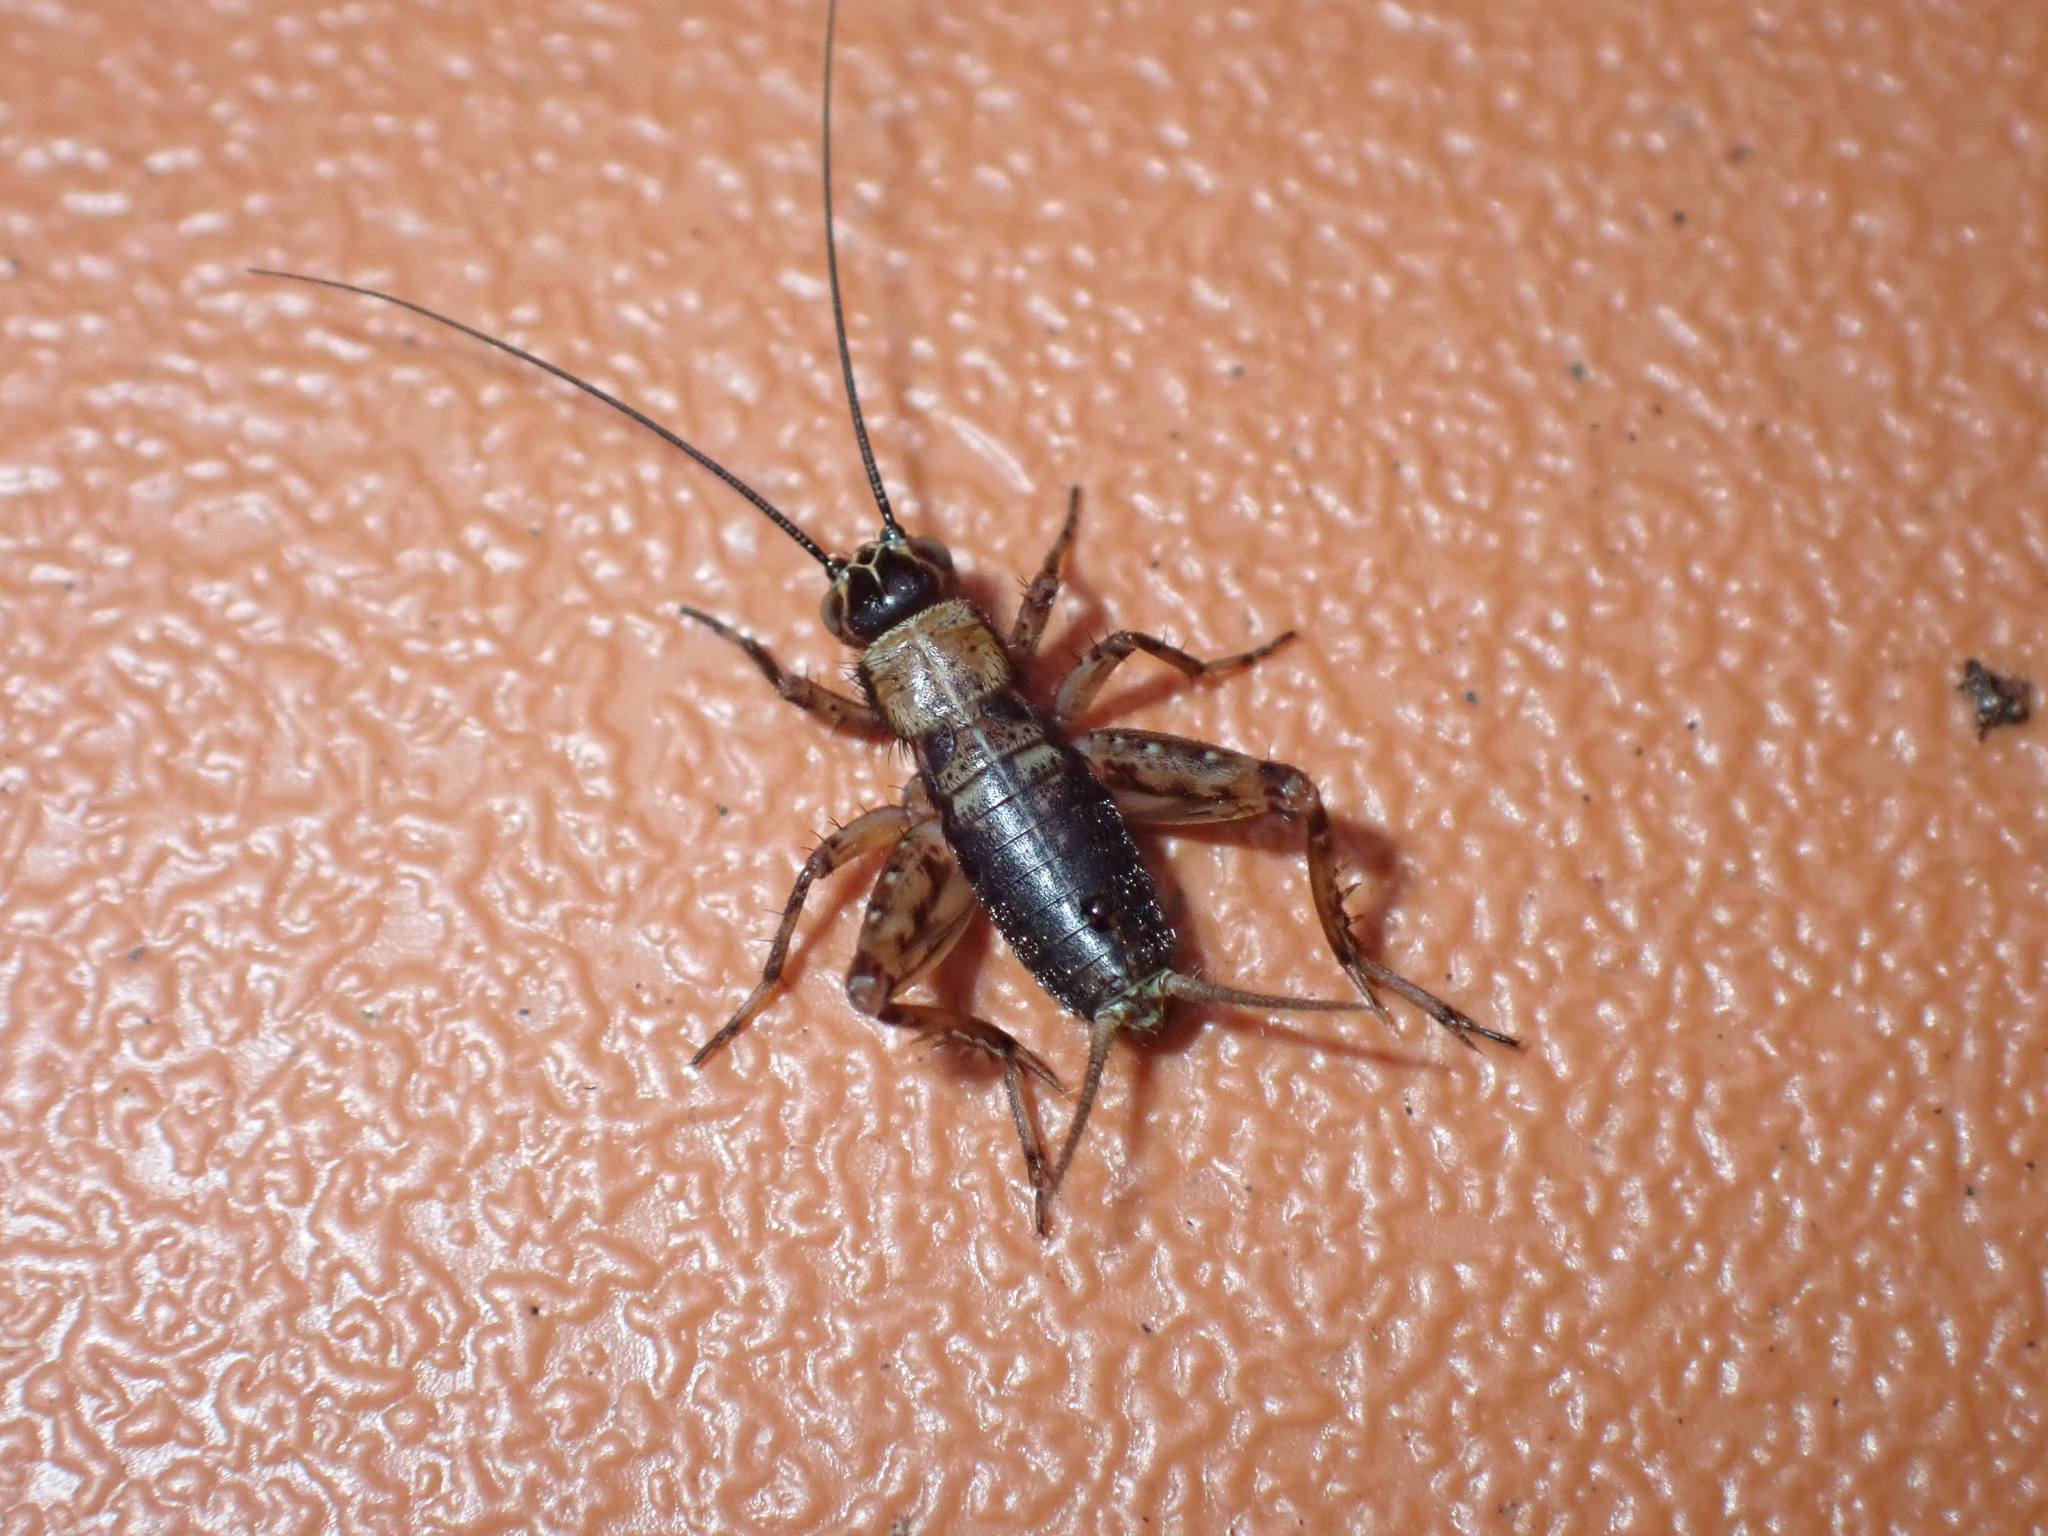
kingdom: Animalia
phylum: Arthropoda
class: Insecta
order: Orthoptera
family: Trigonidiidae
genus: Nemobius
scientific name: Nemobius sylvestris
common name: Wood-cricket
